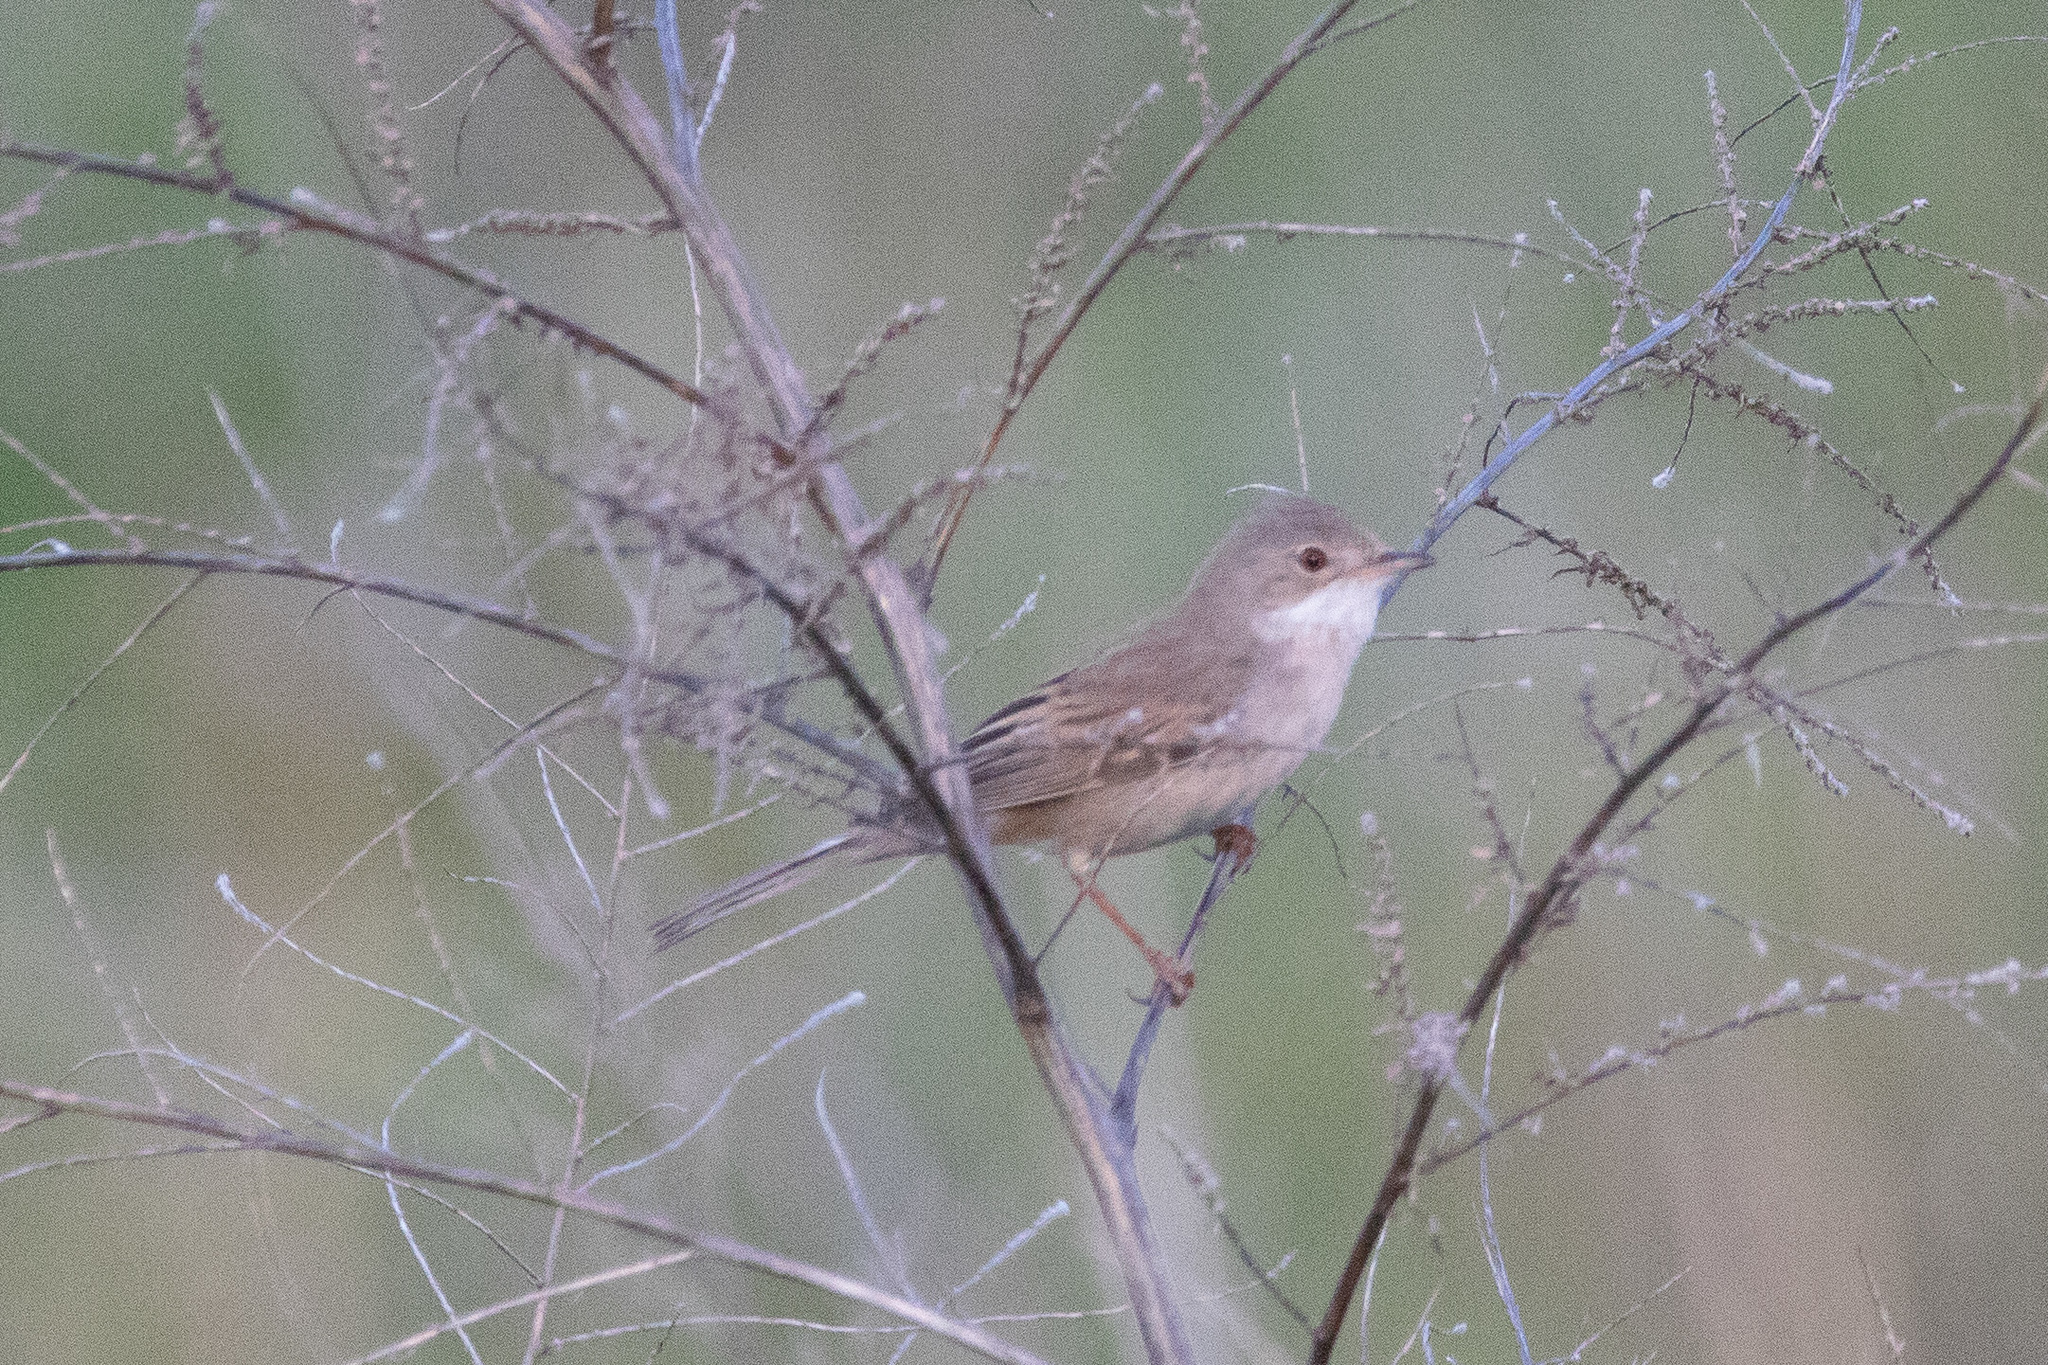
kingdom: Animalia
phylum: Chordata
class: Aves
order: Passeriformes
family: Sylviidae
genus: Sylvia
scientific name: Sylvia communis
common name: Common whitethroat
